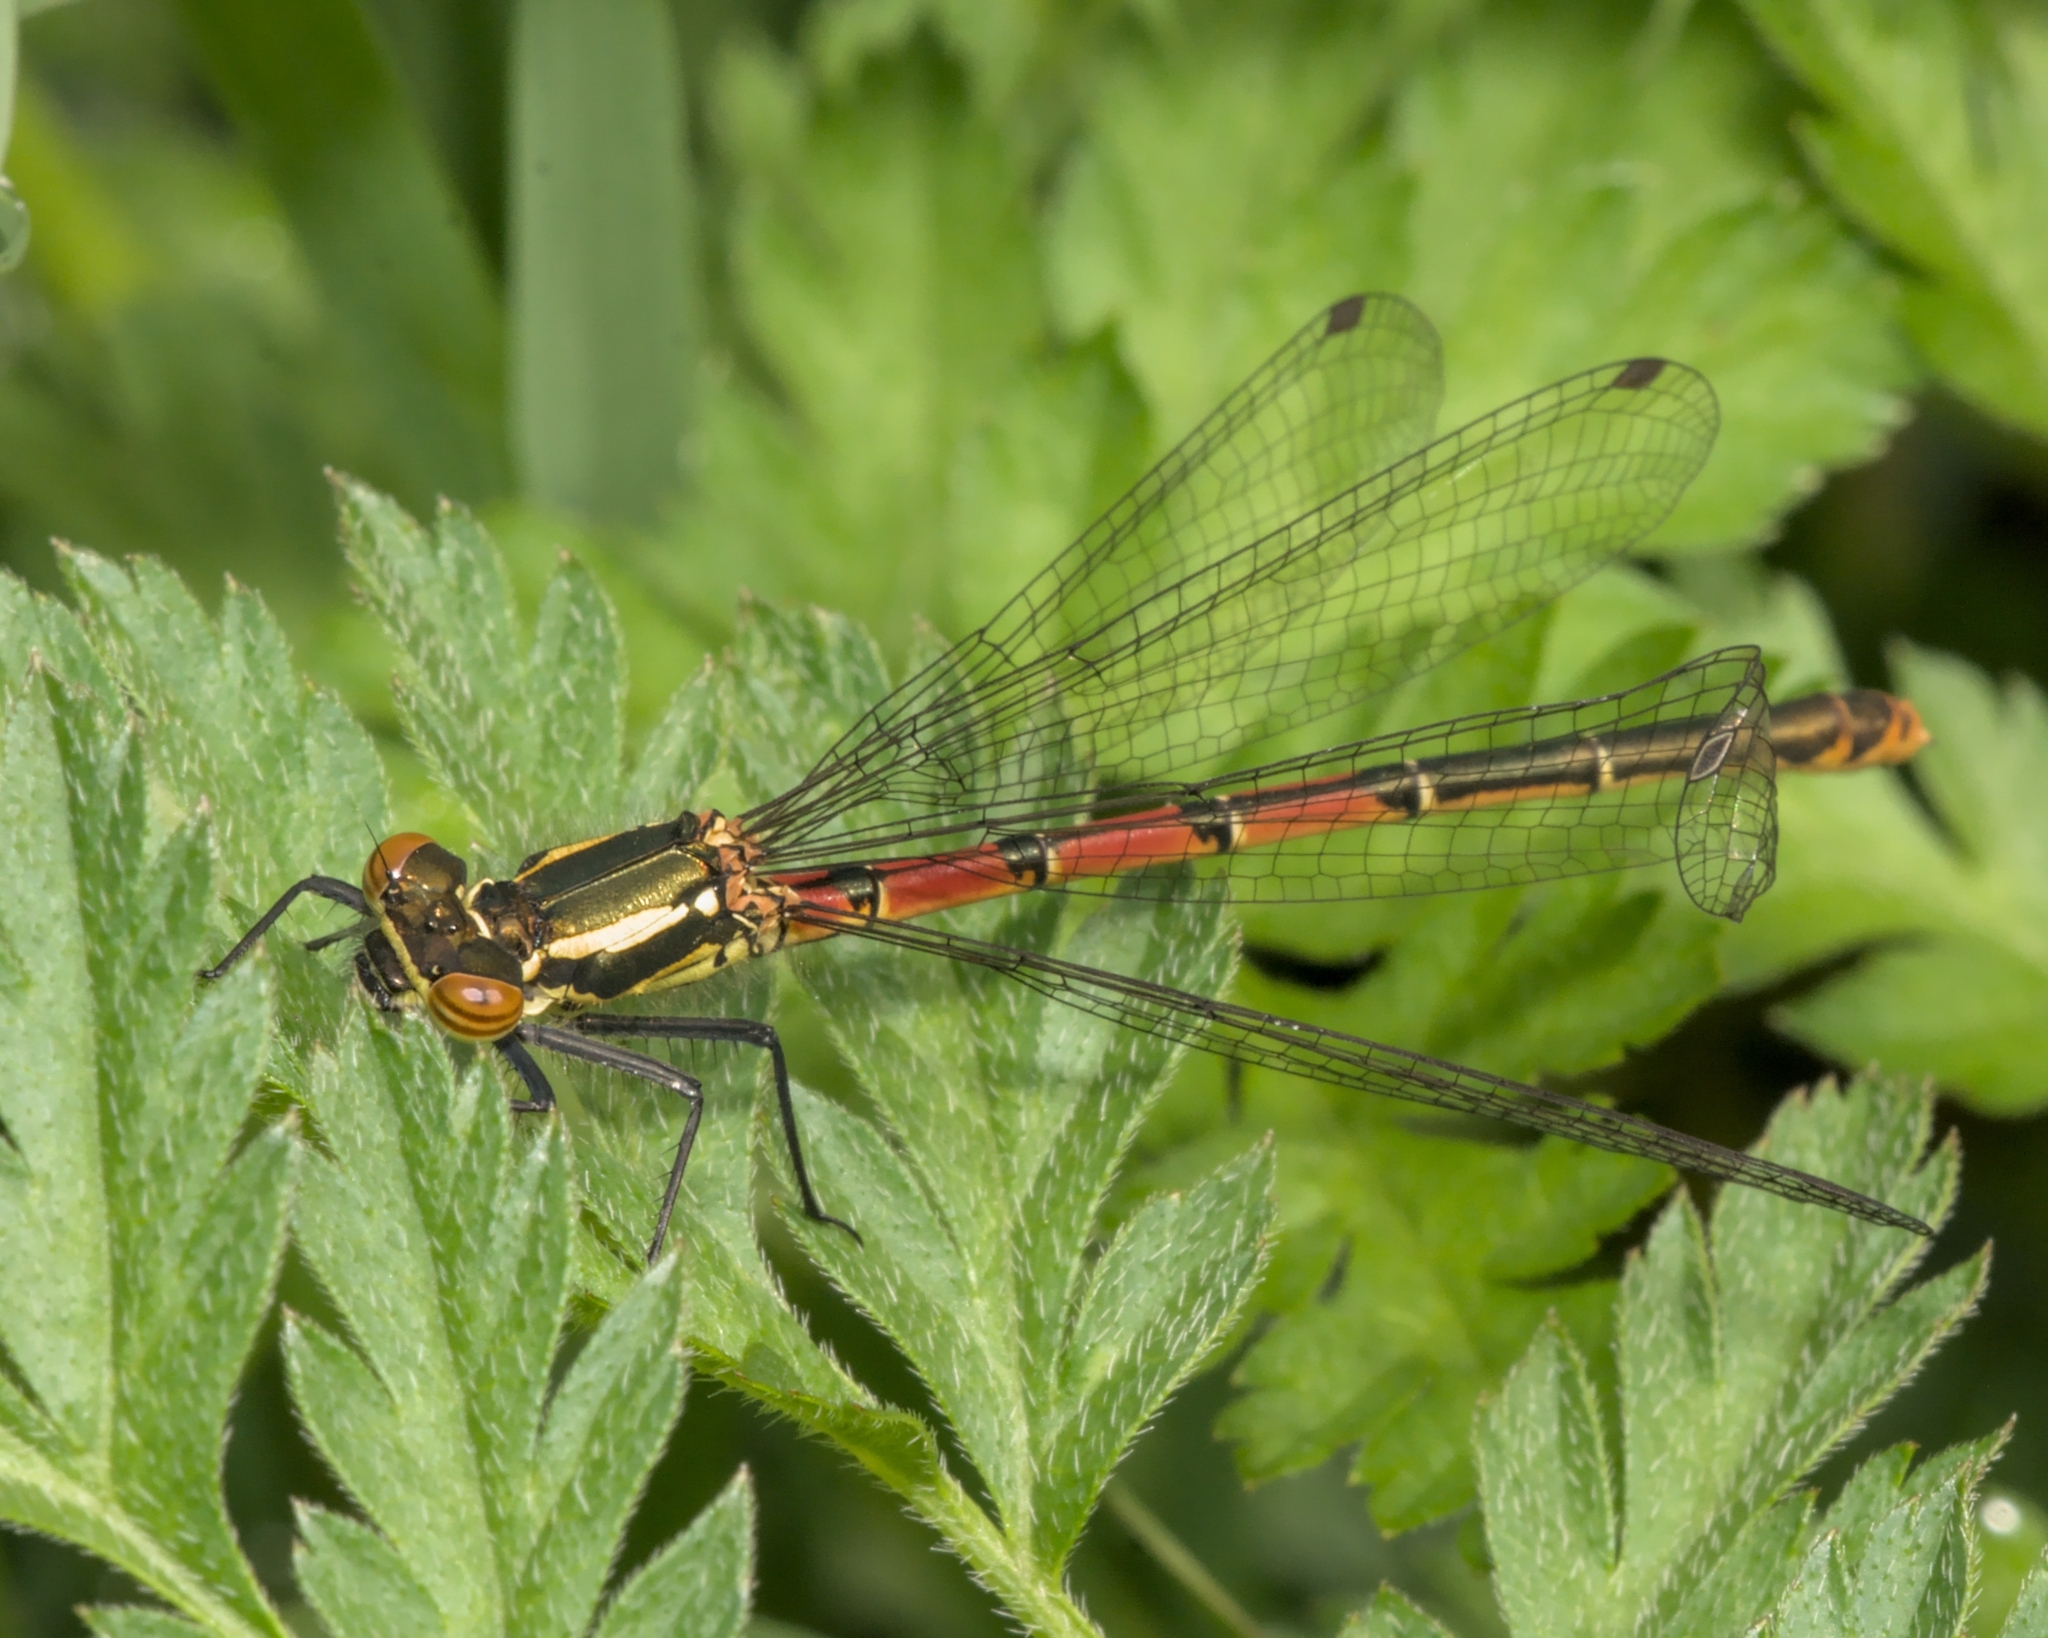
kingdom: Animalia
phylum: Arthropoda
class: Insecta
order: Odonata
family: Coenagrionidae
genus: Pyrrhosoma
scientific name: Pyrrhosoma nymphula
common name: Large red damsel
